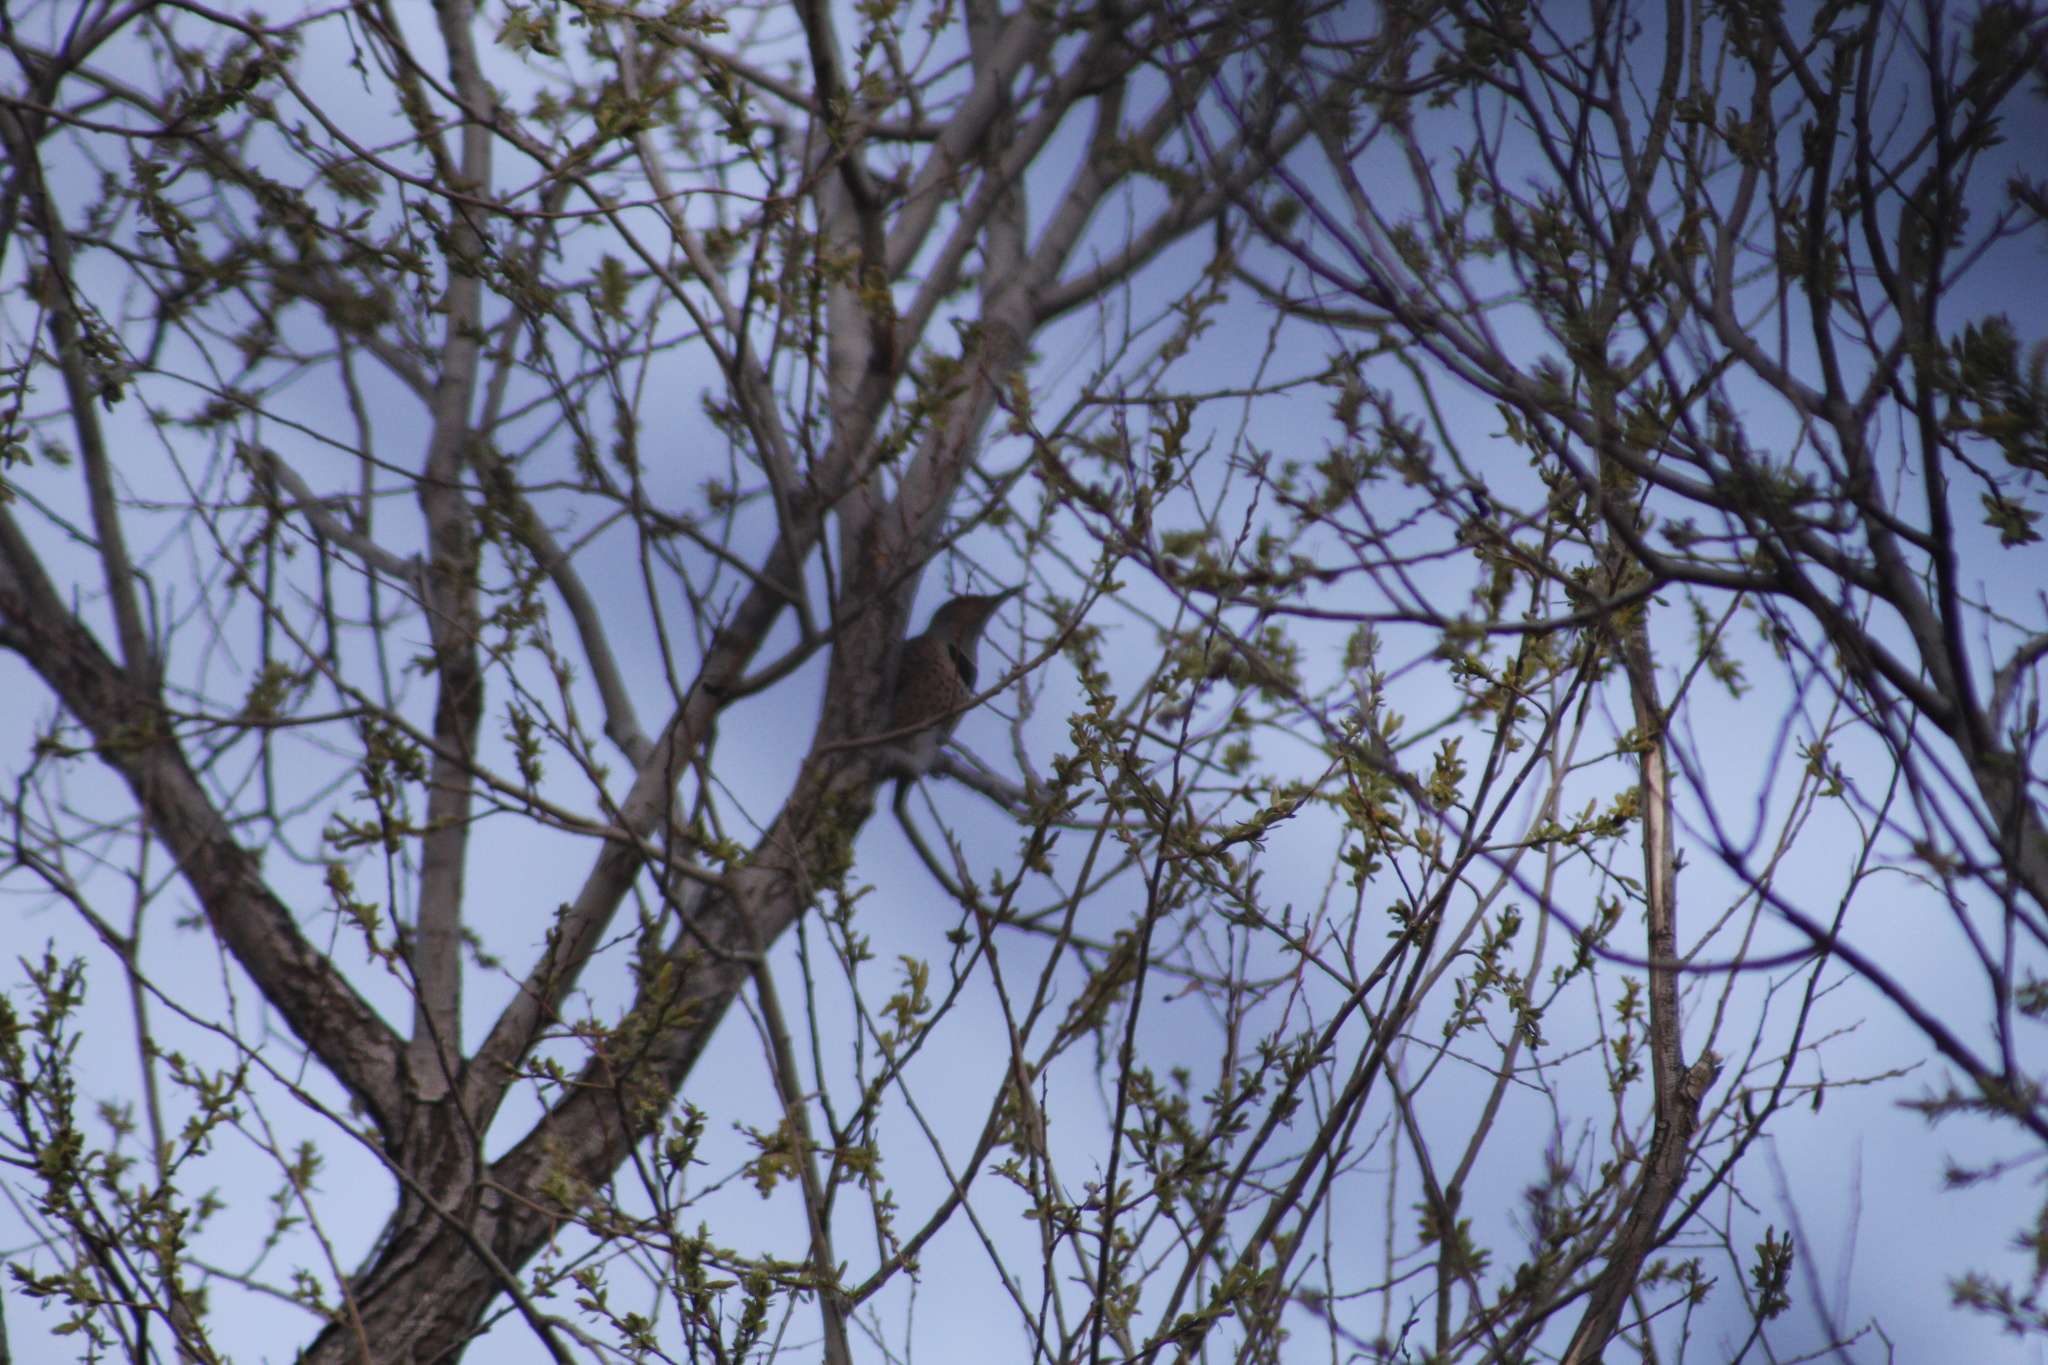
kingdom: Animalia
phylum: Chordata
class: Aves
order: Piciformes
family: Picidae
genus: Colaptes
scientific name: Colaptes auratus
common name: Northern flicker
